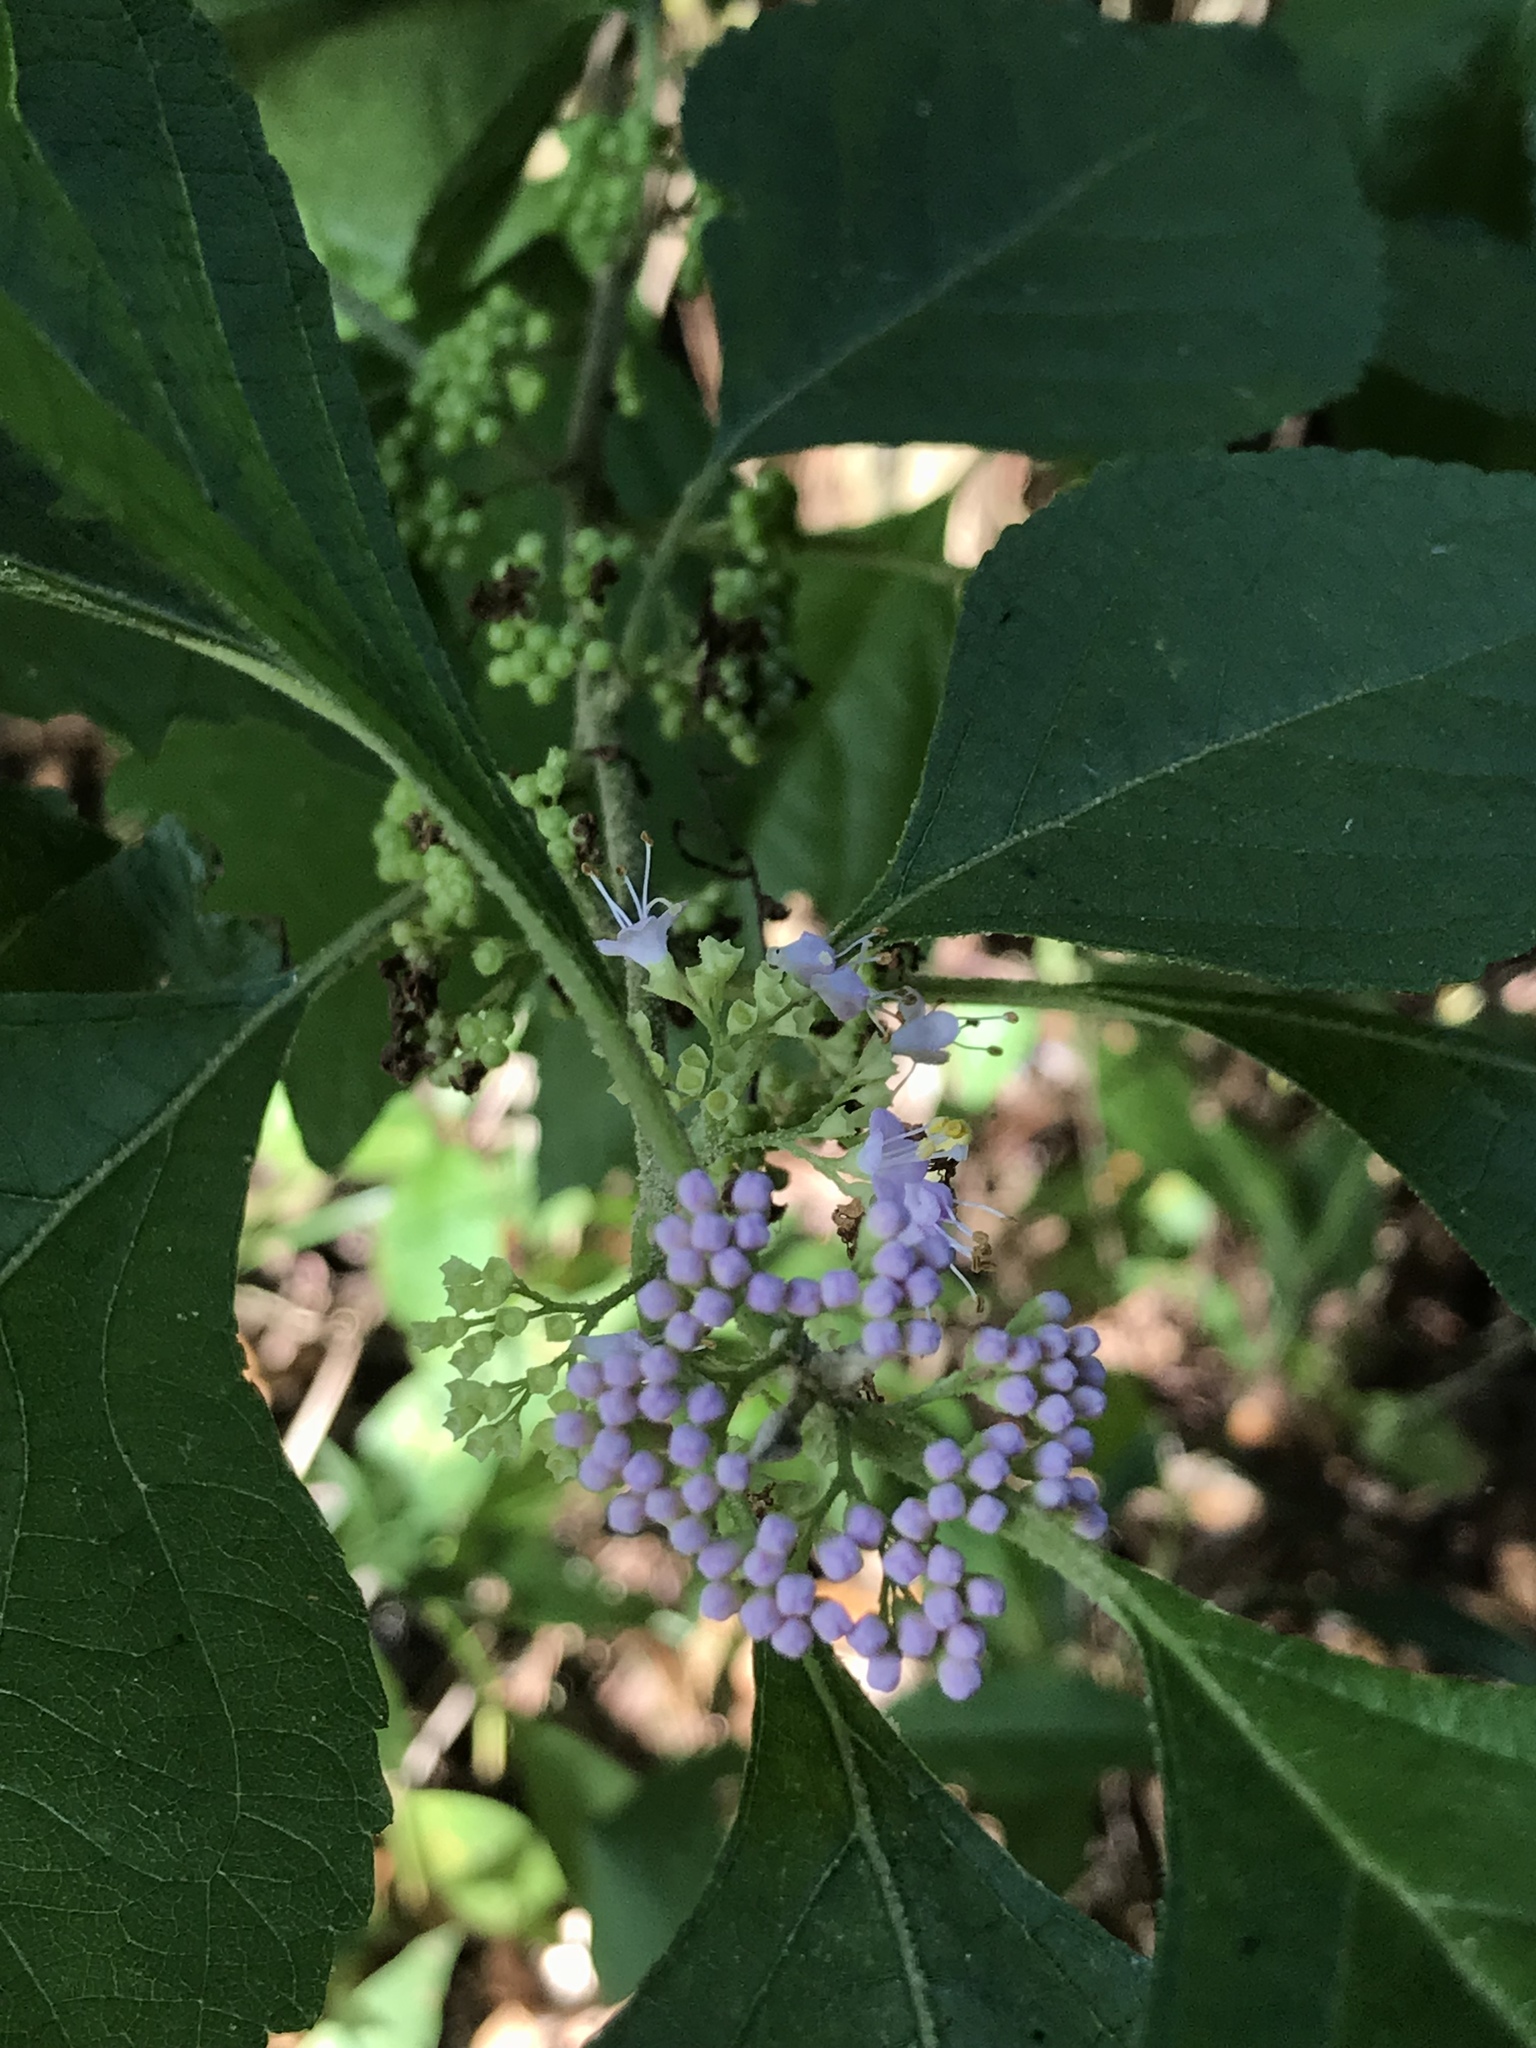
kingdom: Plantae
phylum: Tracheophyta
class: Magnoliopsida
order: Lamiales
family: Lamiaceae
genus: Callicarpa
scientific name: Callicarpa americana
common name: American beautyberry
